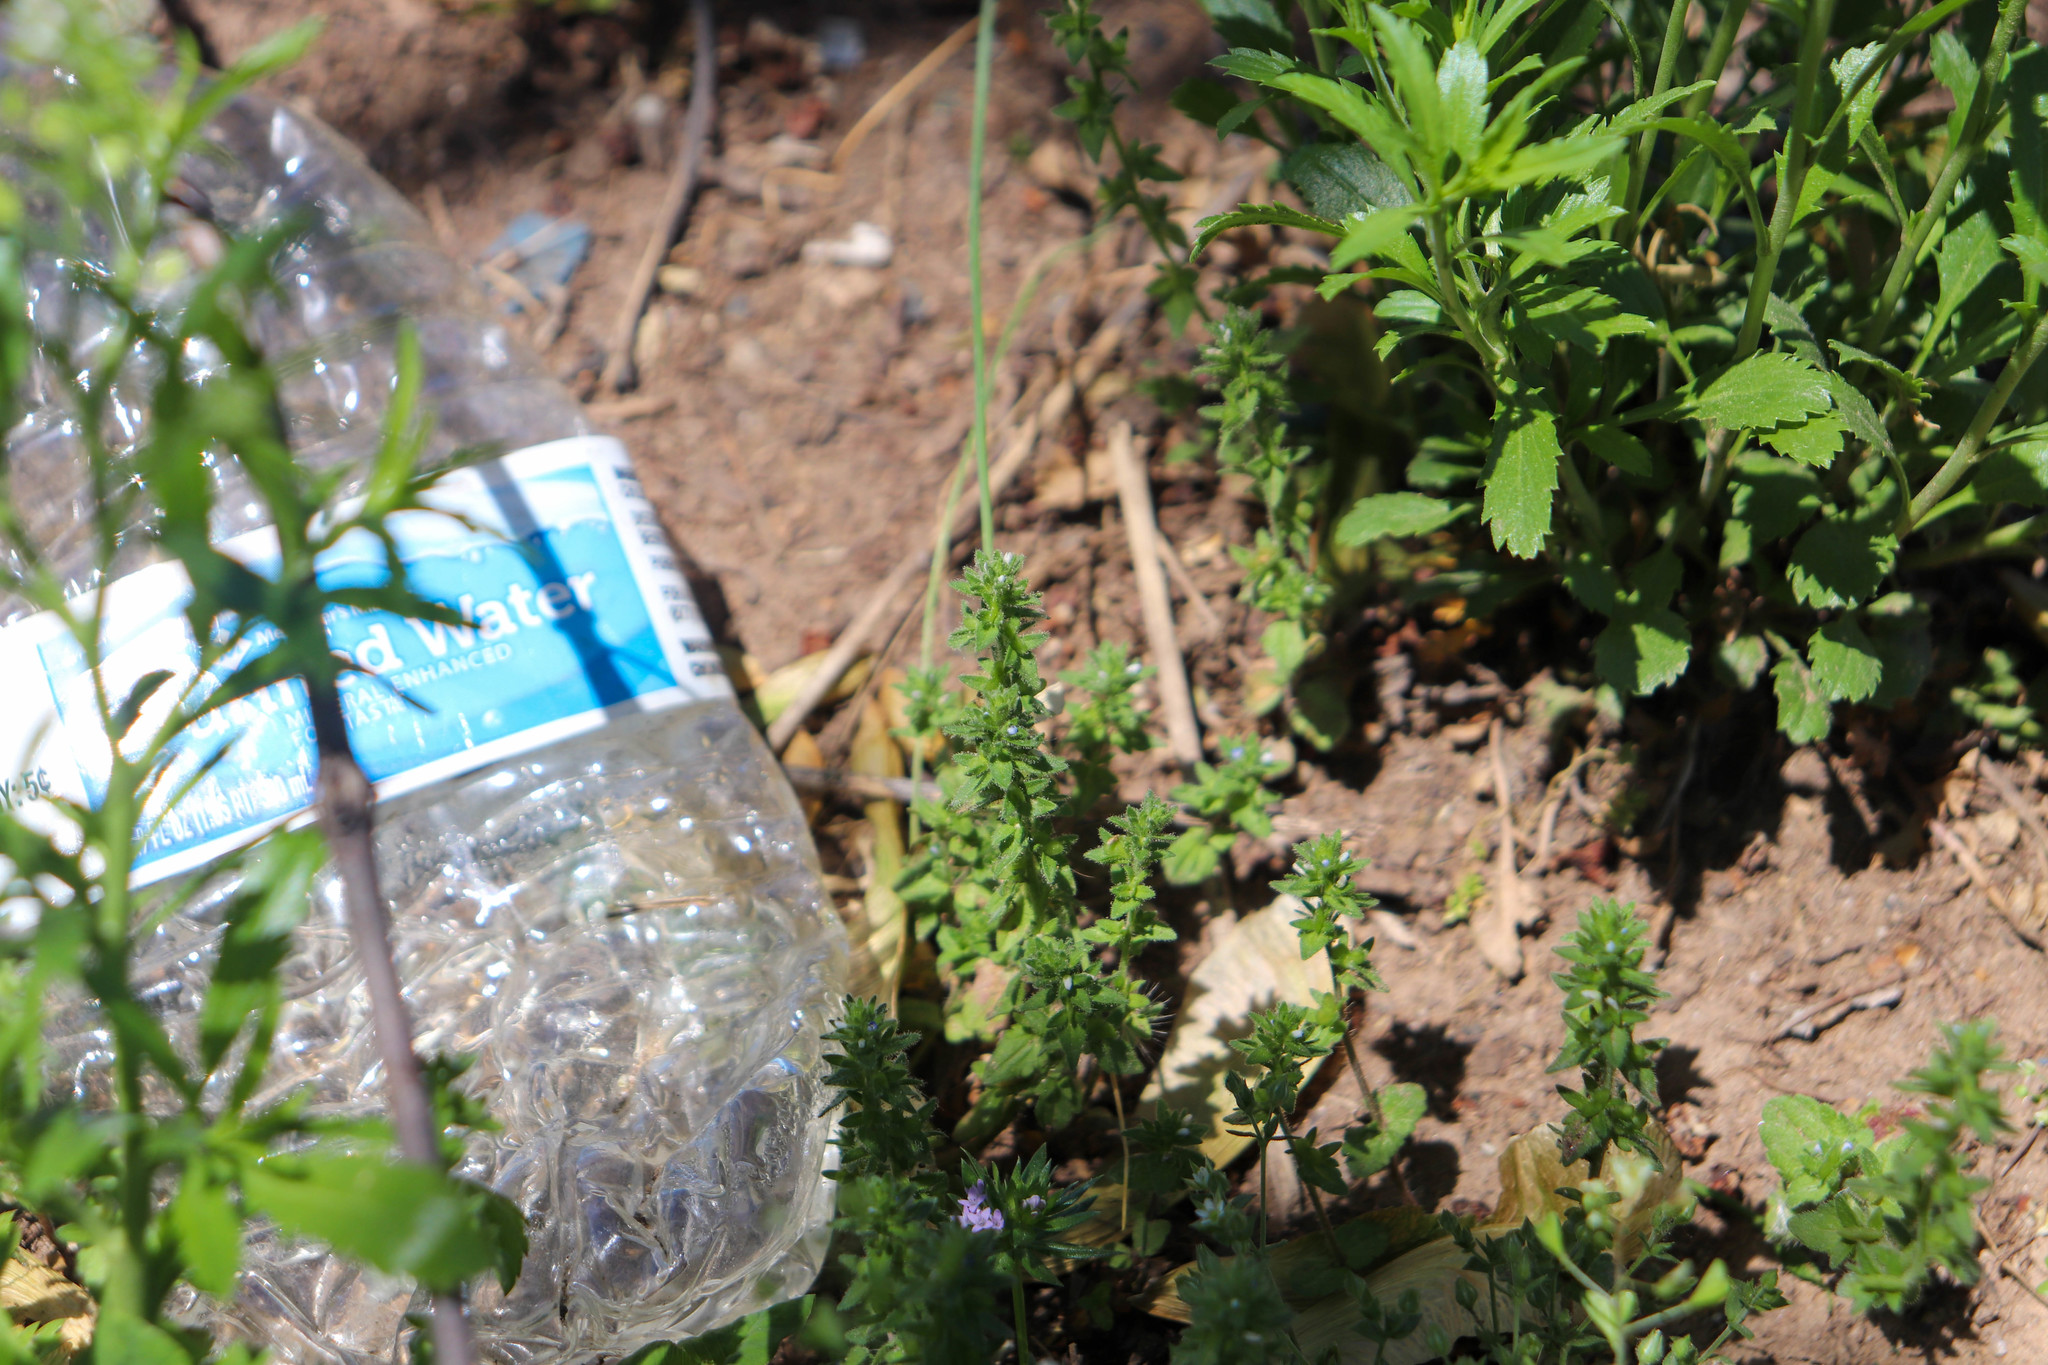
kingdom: Plantae
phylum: Tracheophyta
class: Magnoliopsida
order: Lamiales
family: Plantaginaceae
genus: Veronica
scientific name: Veronica arvensis
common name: Corn speedwell
